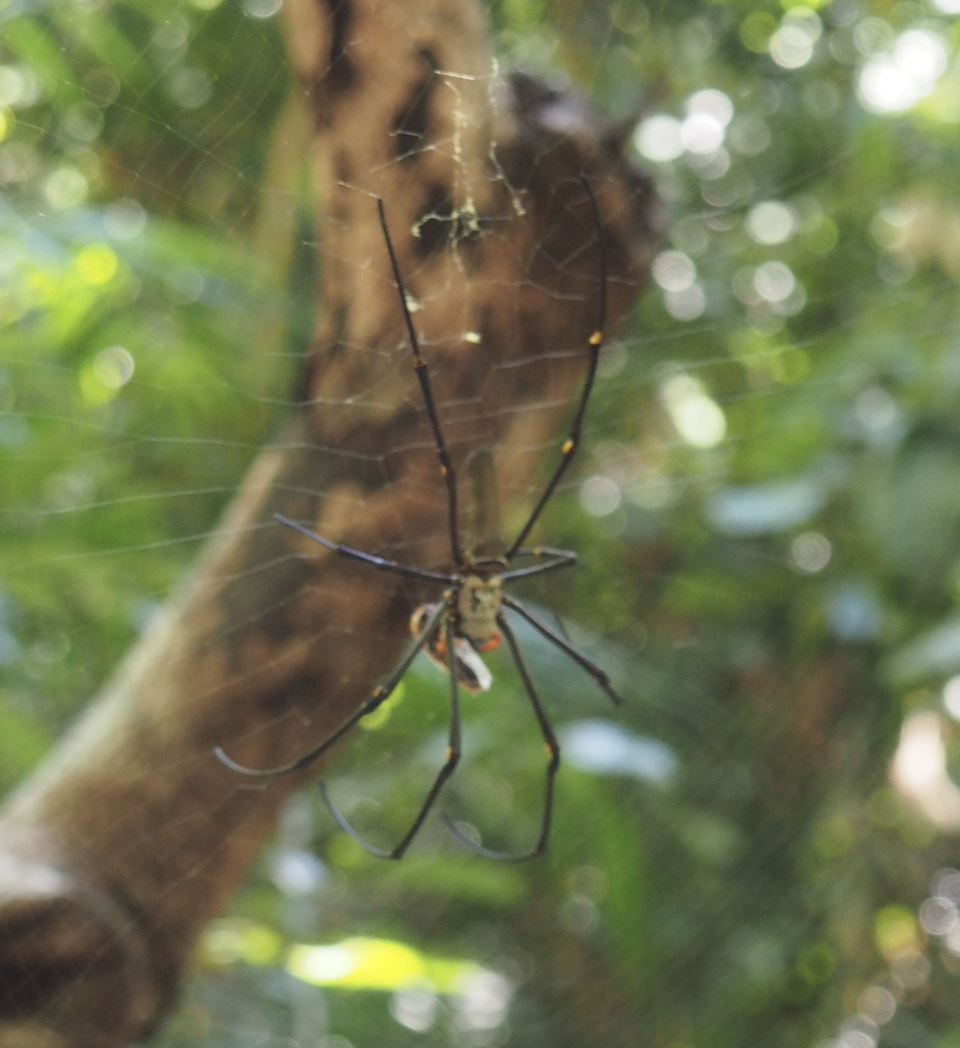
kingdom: Animalia
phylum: Arthropoda
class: Arachnida
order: Araneae
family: Araneidae
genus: Nephila
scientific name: Nephila pilipes
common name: Giant golden orb weaver
